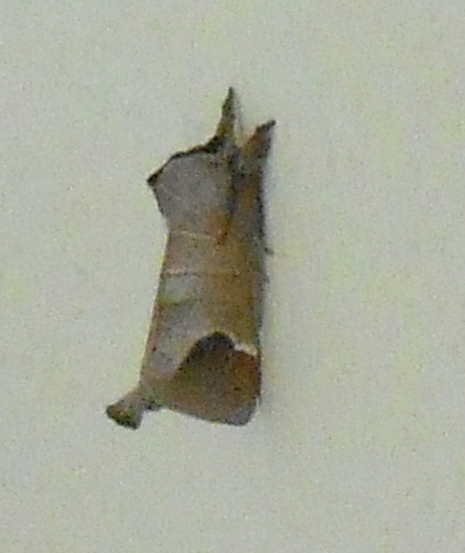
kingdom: Animalia
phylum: Arthropoda
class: Insecta
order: Lepidoptera
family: Notodontidae
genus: Clostera
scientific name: Clostera curtula
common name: Chocolate-tip
